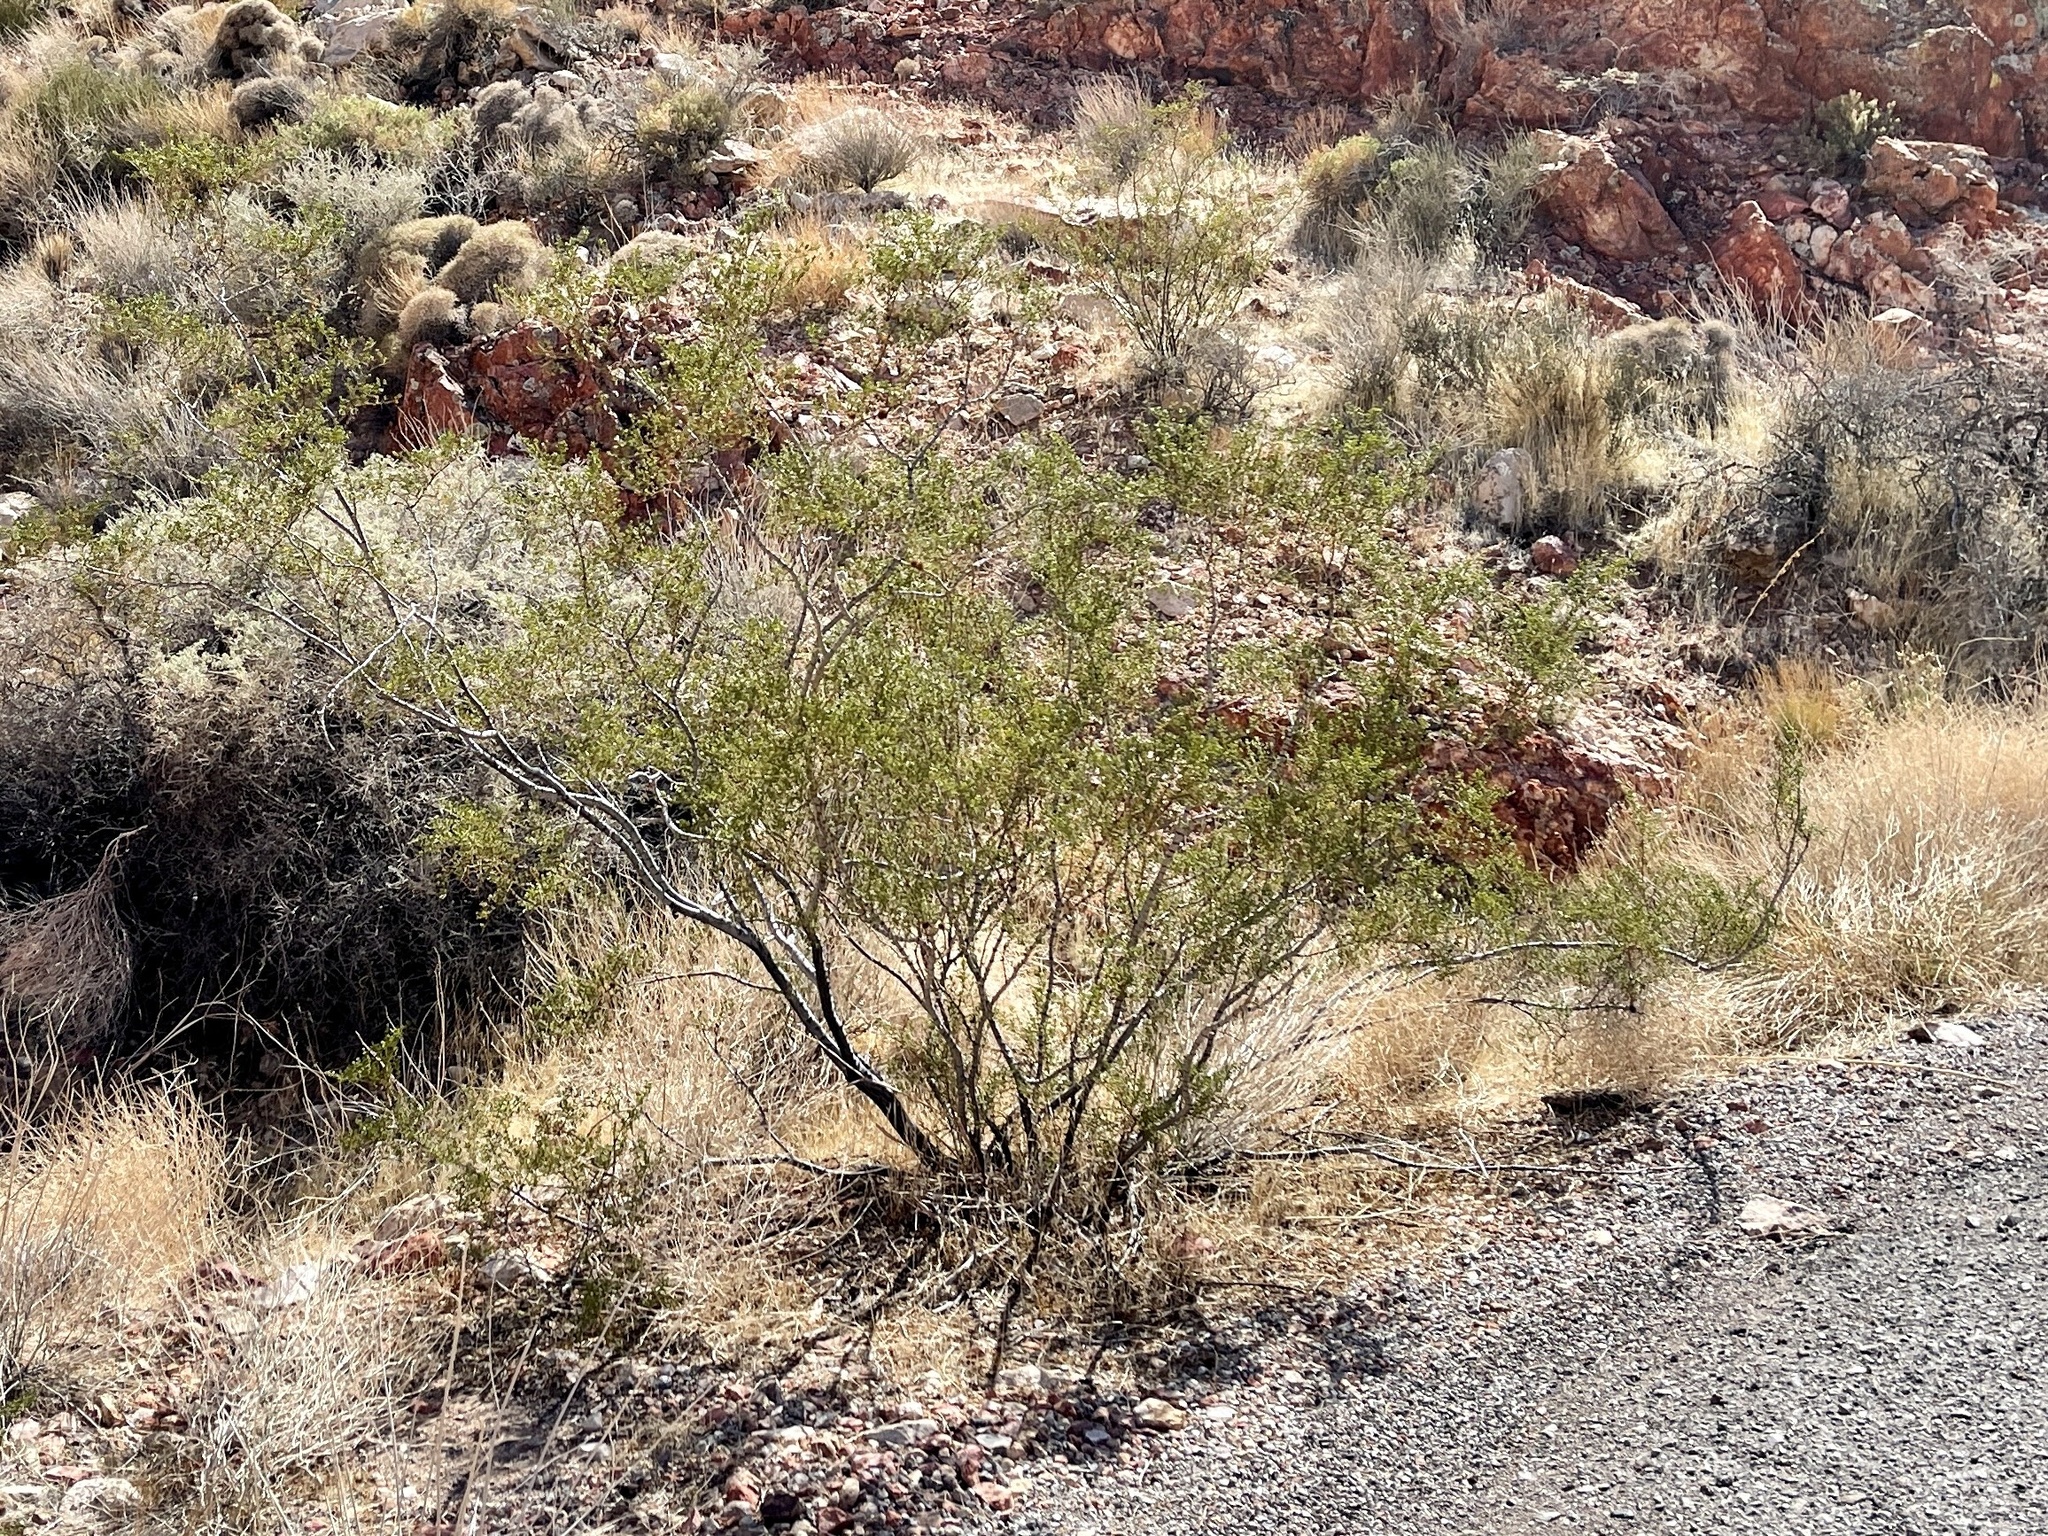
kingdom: Plantae
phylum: Tracheophyta
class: Magnoliopsida
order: Zygophyllales
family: Zygophyllaceae
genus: Larrea
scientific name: Larrea tridentata
